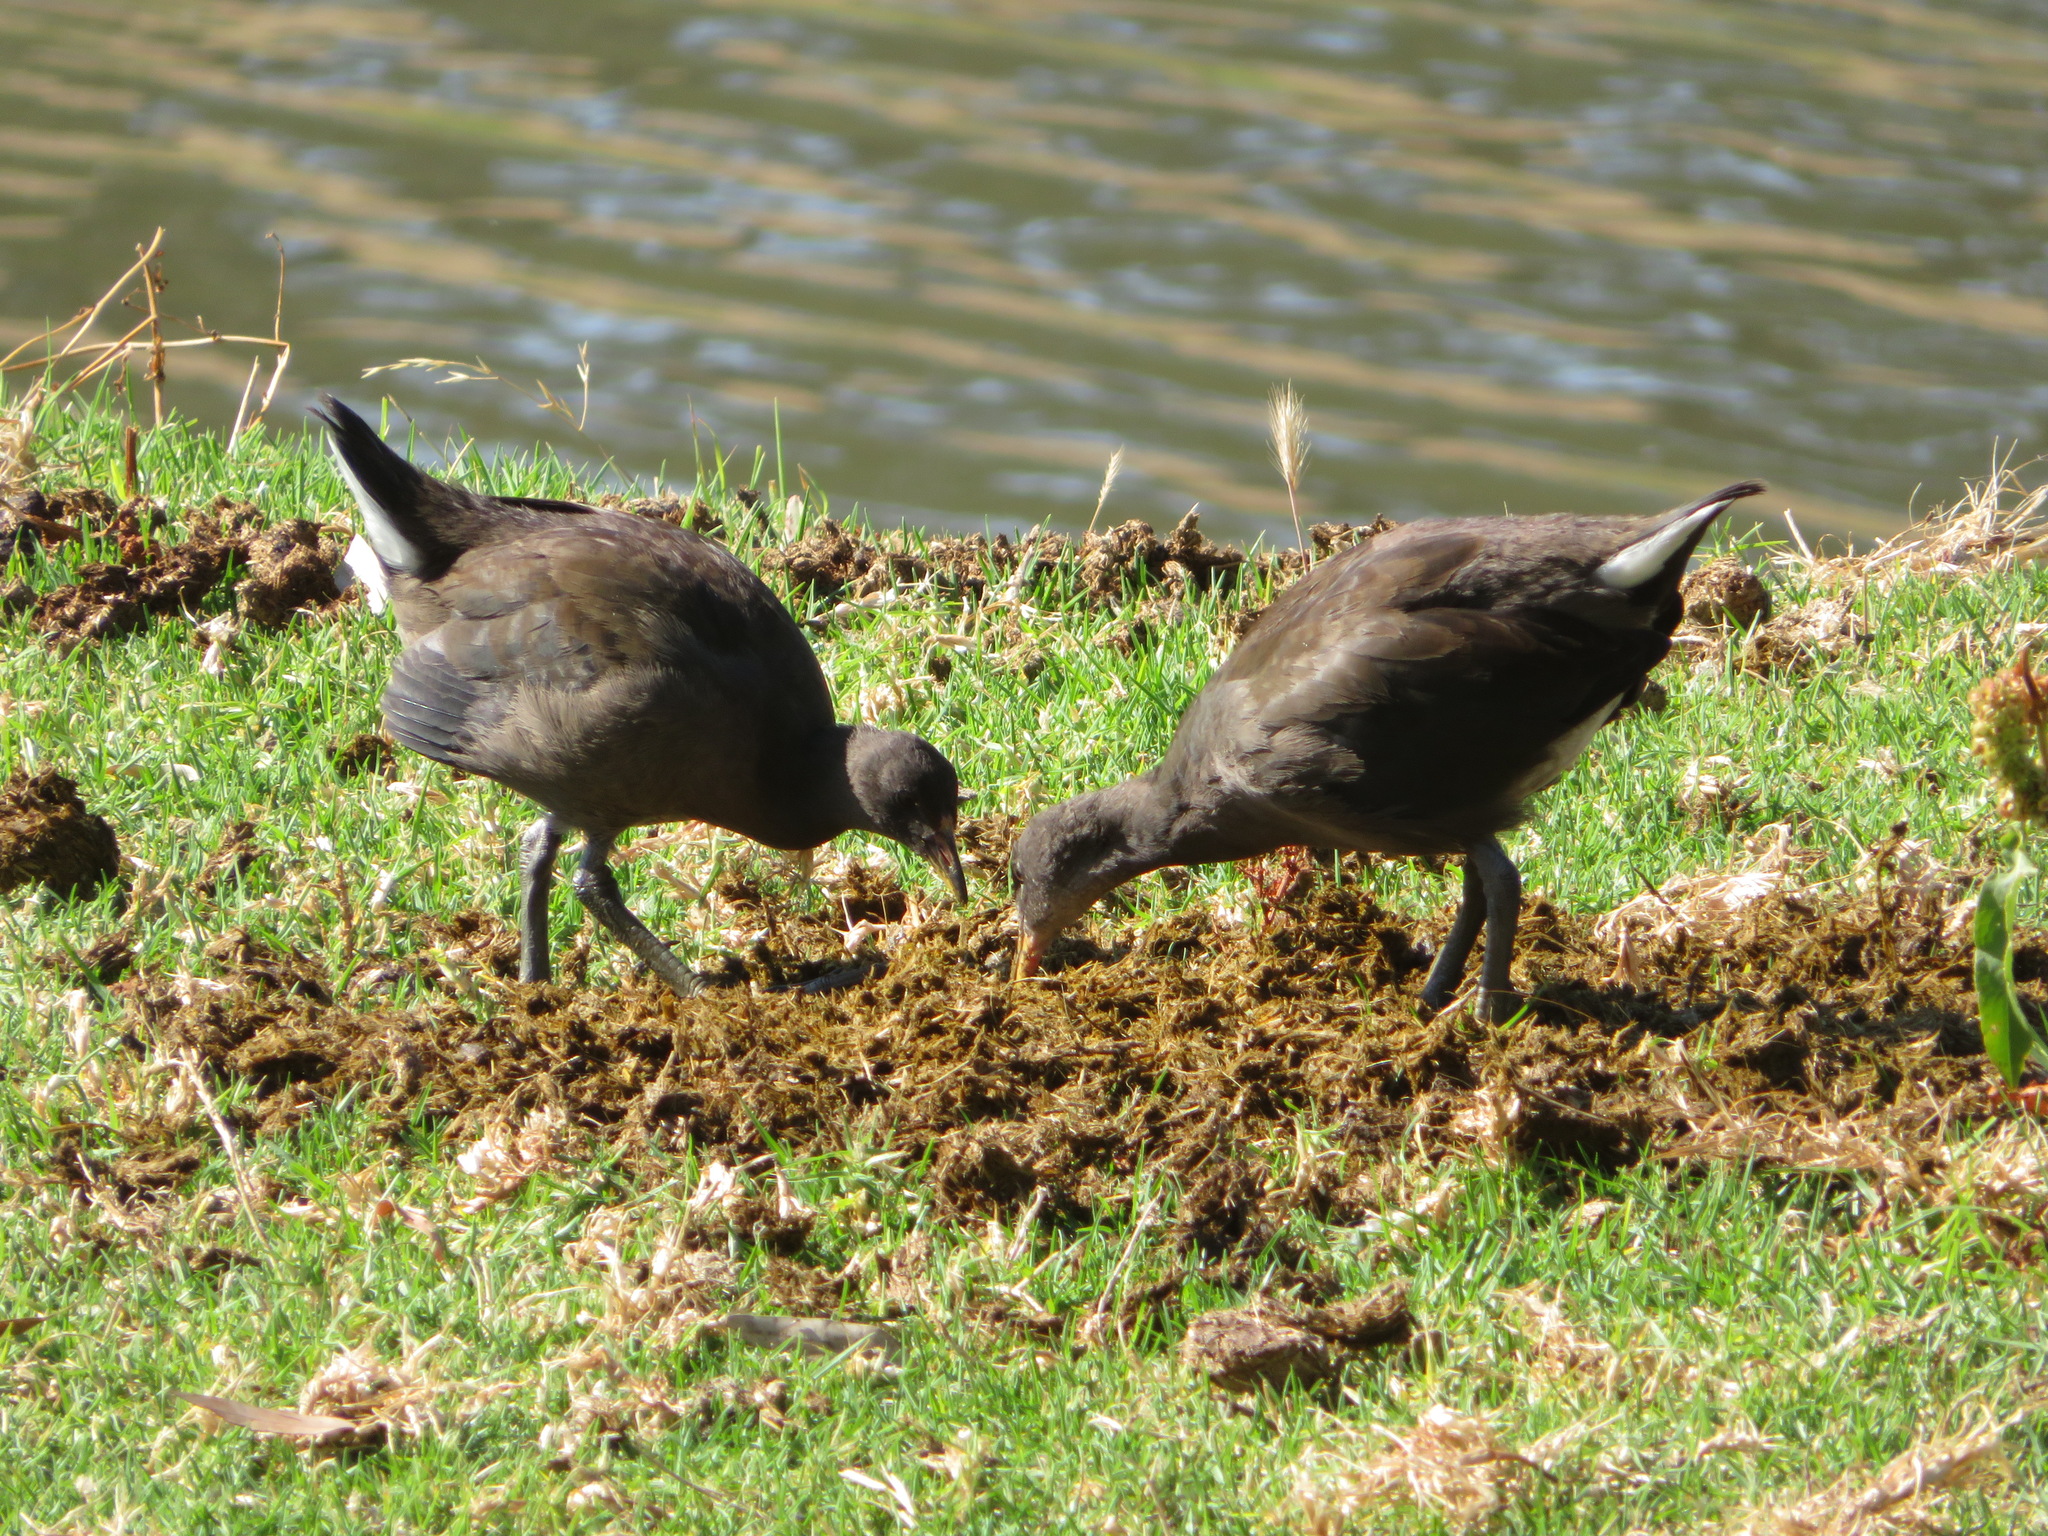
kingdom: Animalia
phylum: Chordata
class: Aves
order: Gruiformes
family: Rallidae
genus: Gallinula
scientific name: Gallinula tenebrosa
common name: Dusky moorhen
